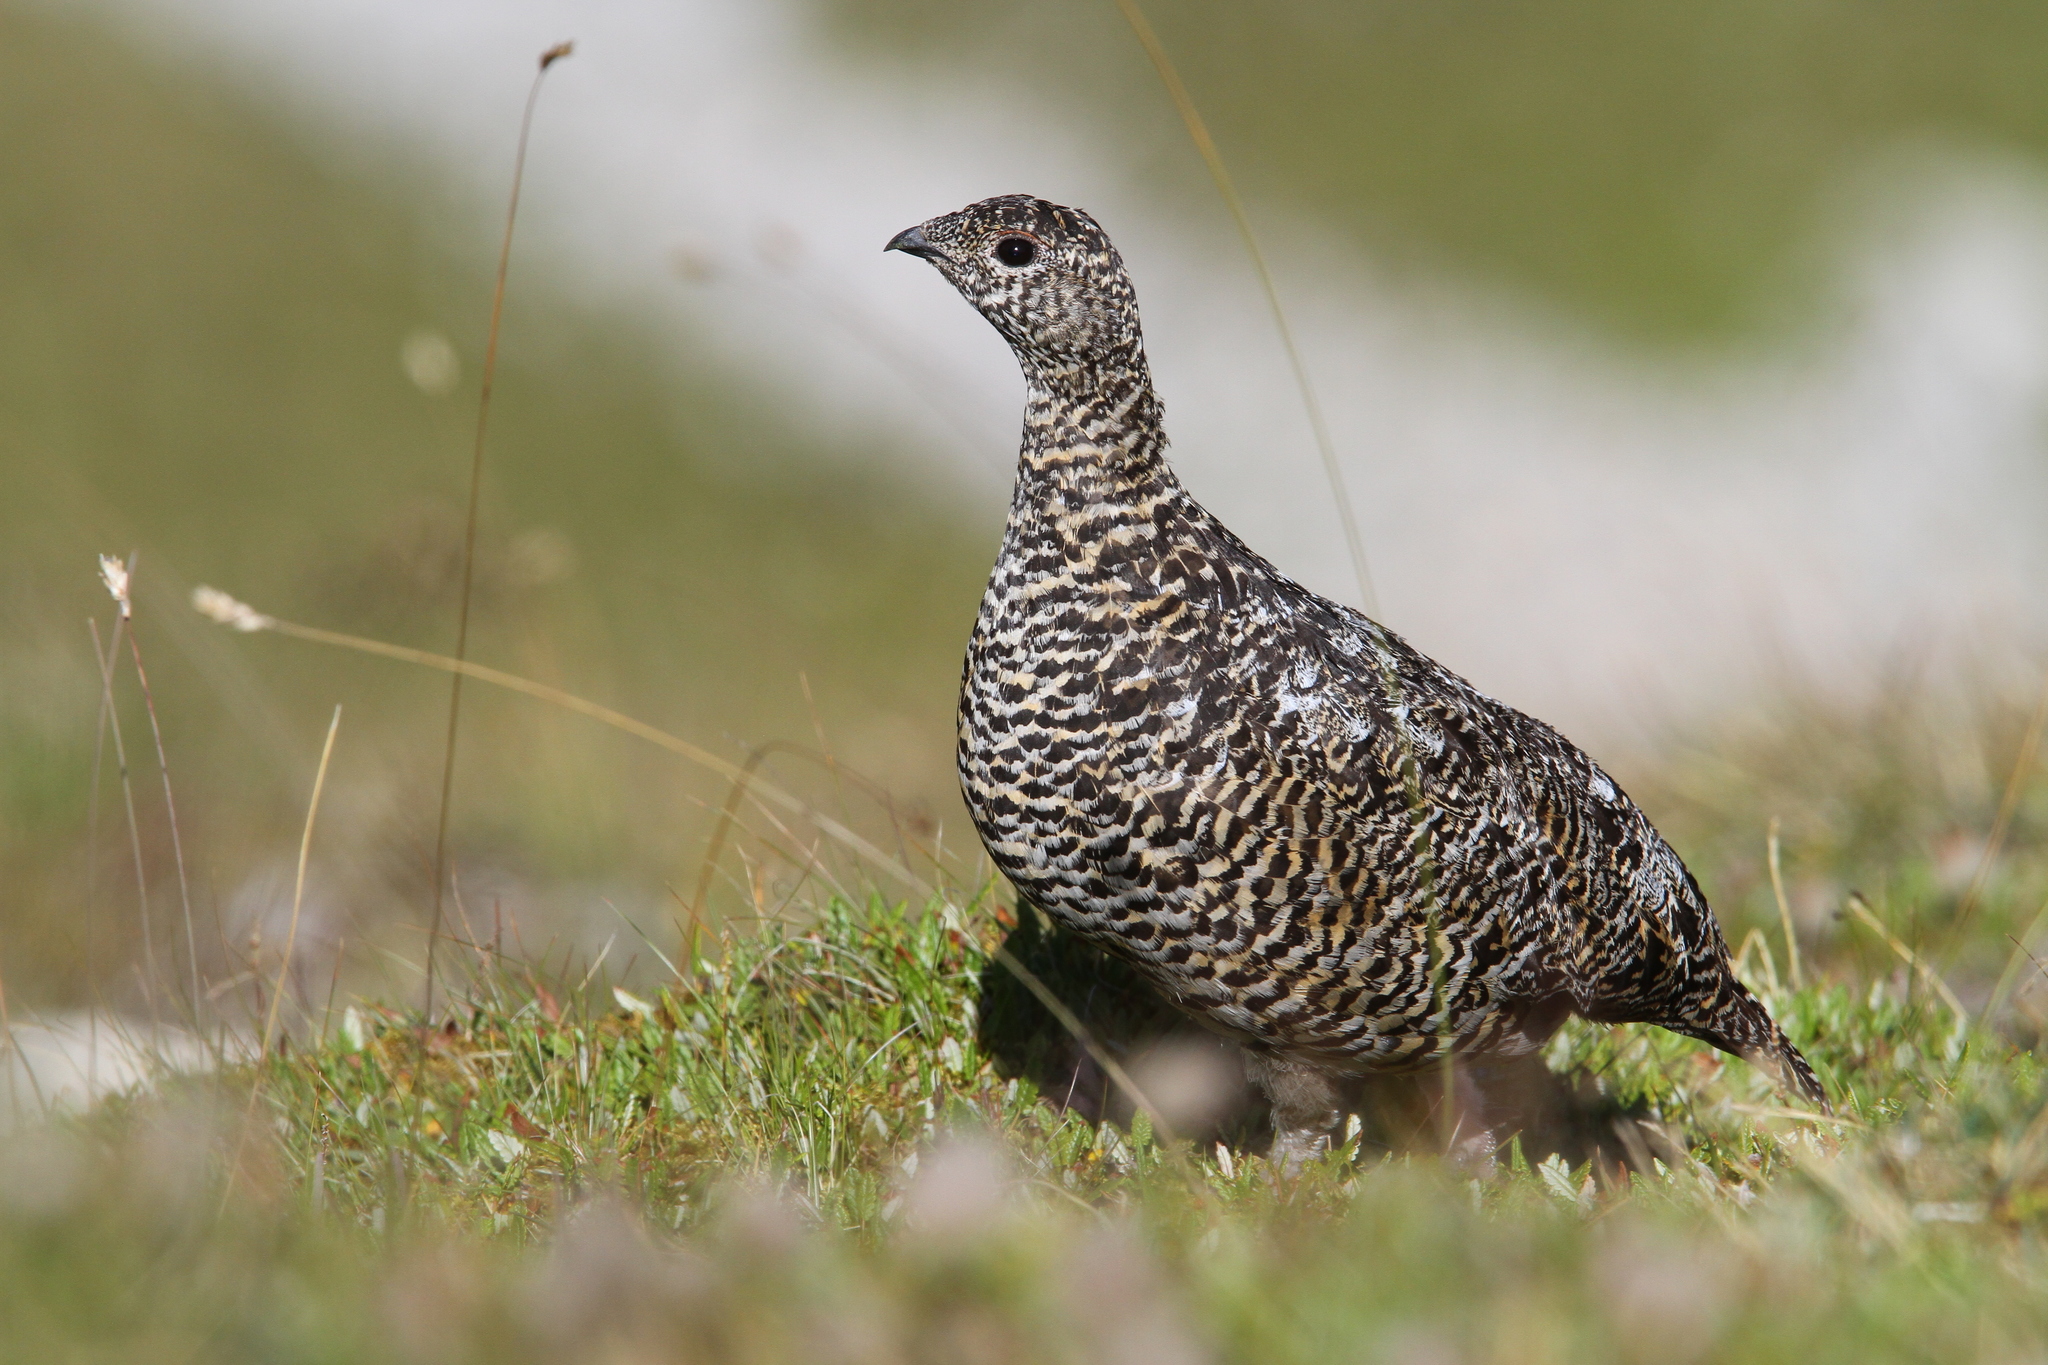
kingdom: Animalia
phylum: Chordata
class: Aves
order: Galliformes
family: Phasianidae
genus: Lagopus
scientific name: Lagopus muta
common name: Rock ptarmigan
